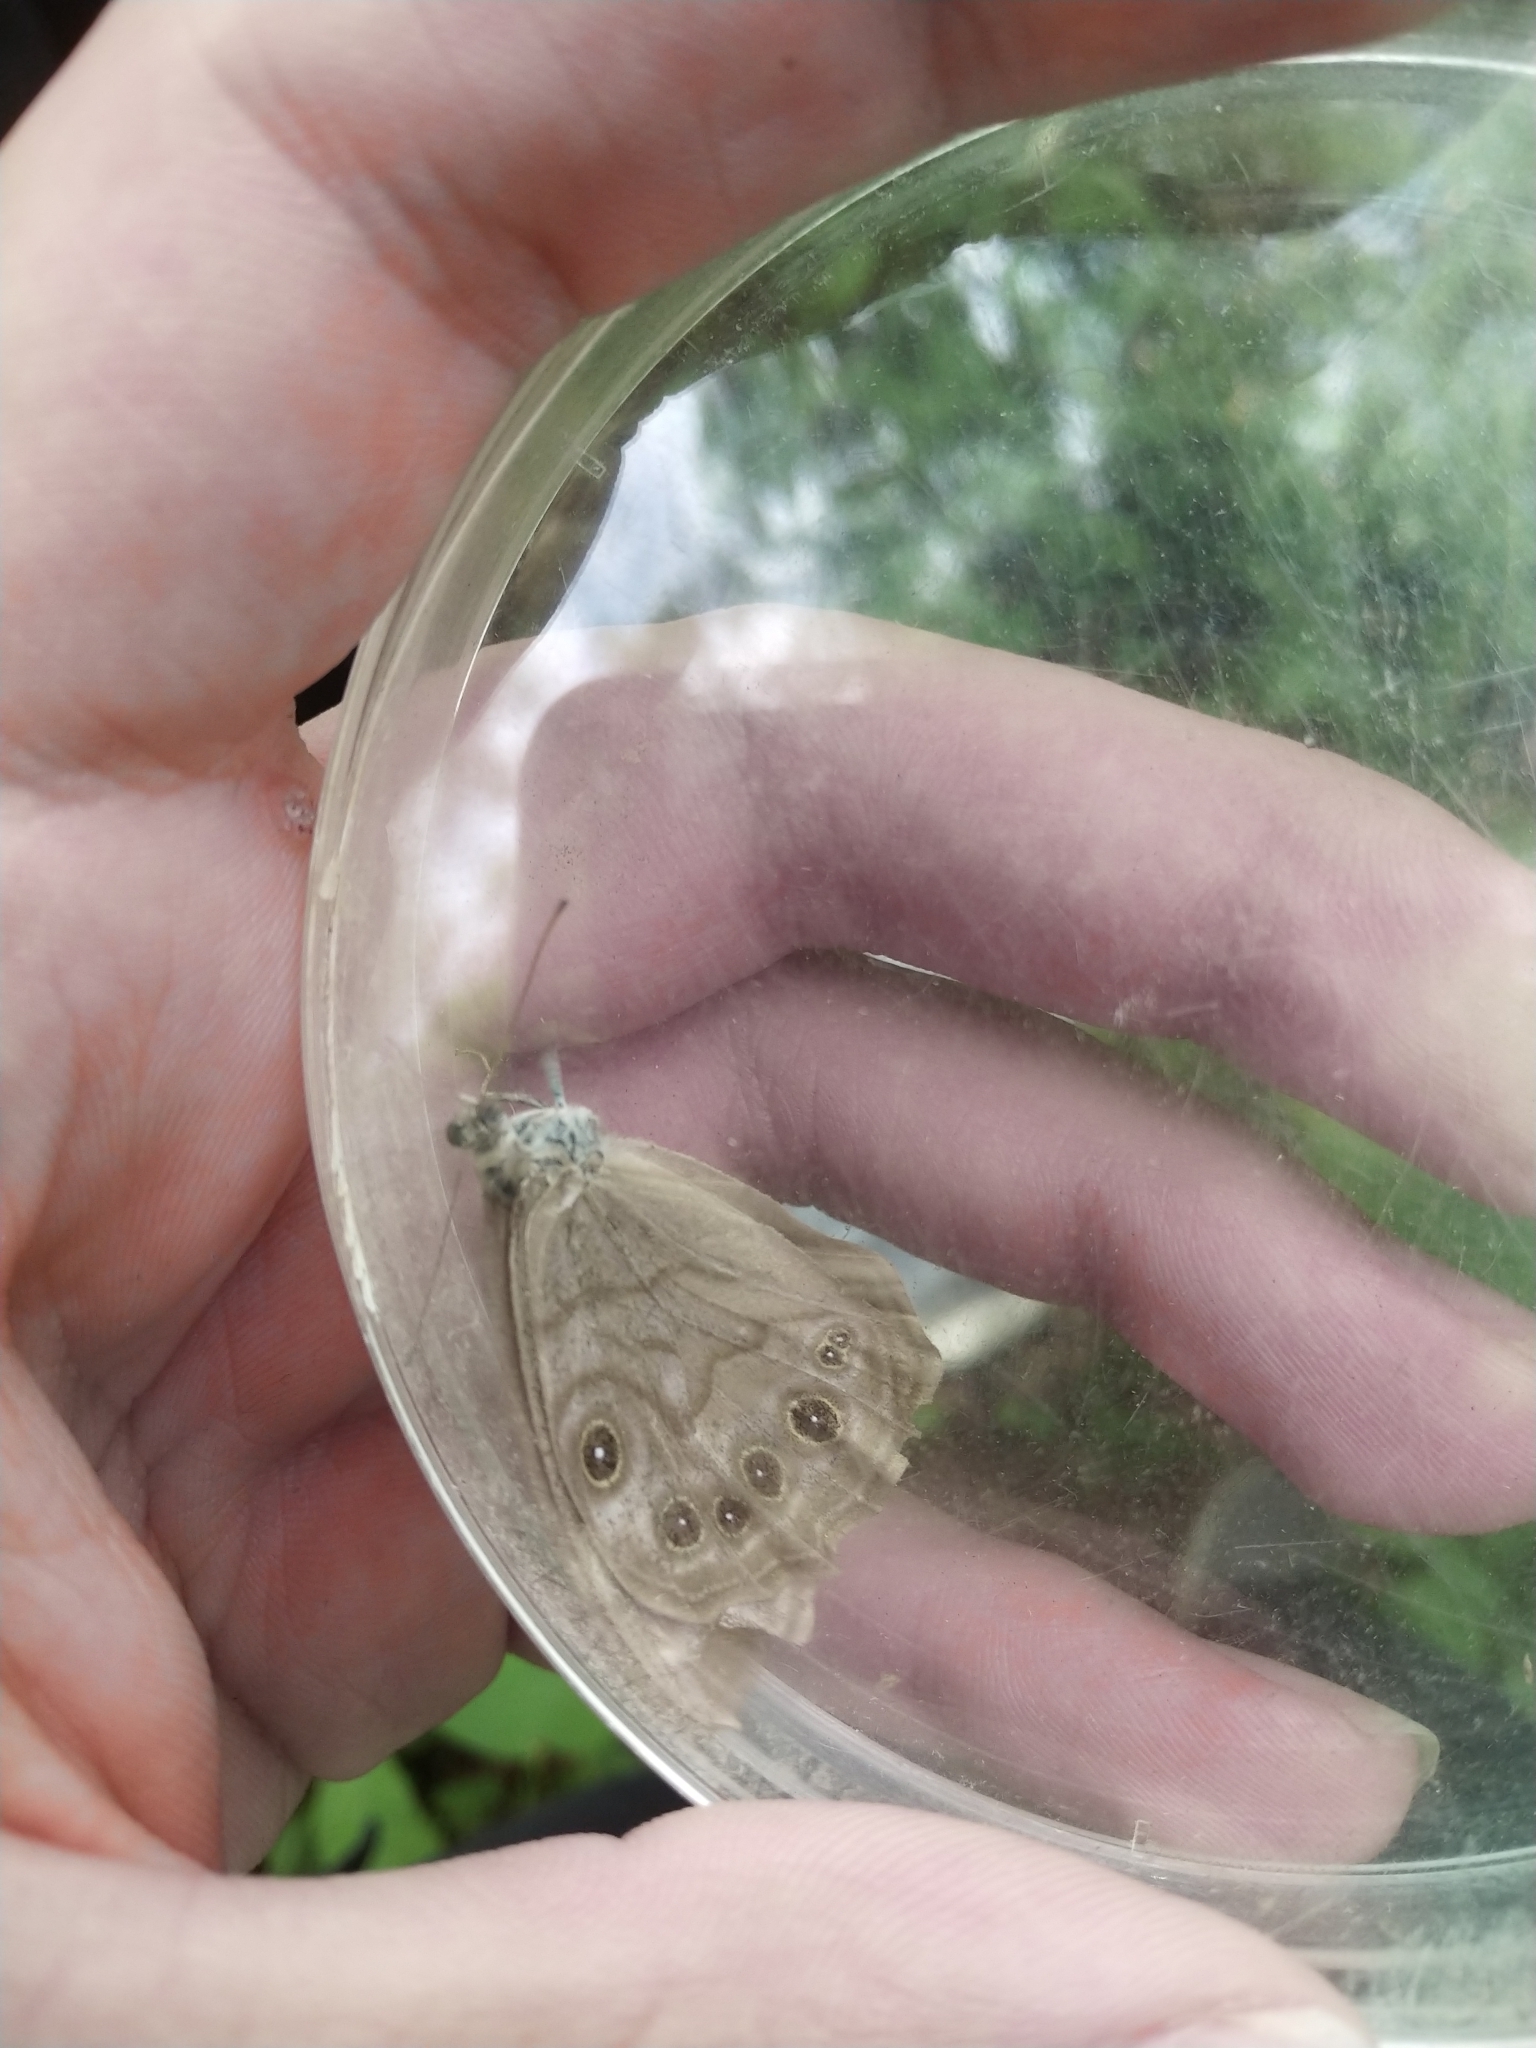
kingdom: Animalia
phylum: Arthropoda
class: Insecta
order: Lepidoptera
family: Nymphalidae
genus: Lethe
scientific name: Lethe anthedon
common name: Northern pearly-eye
